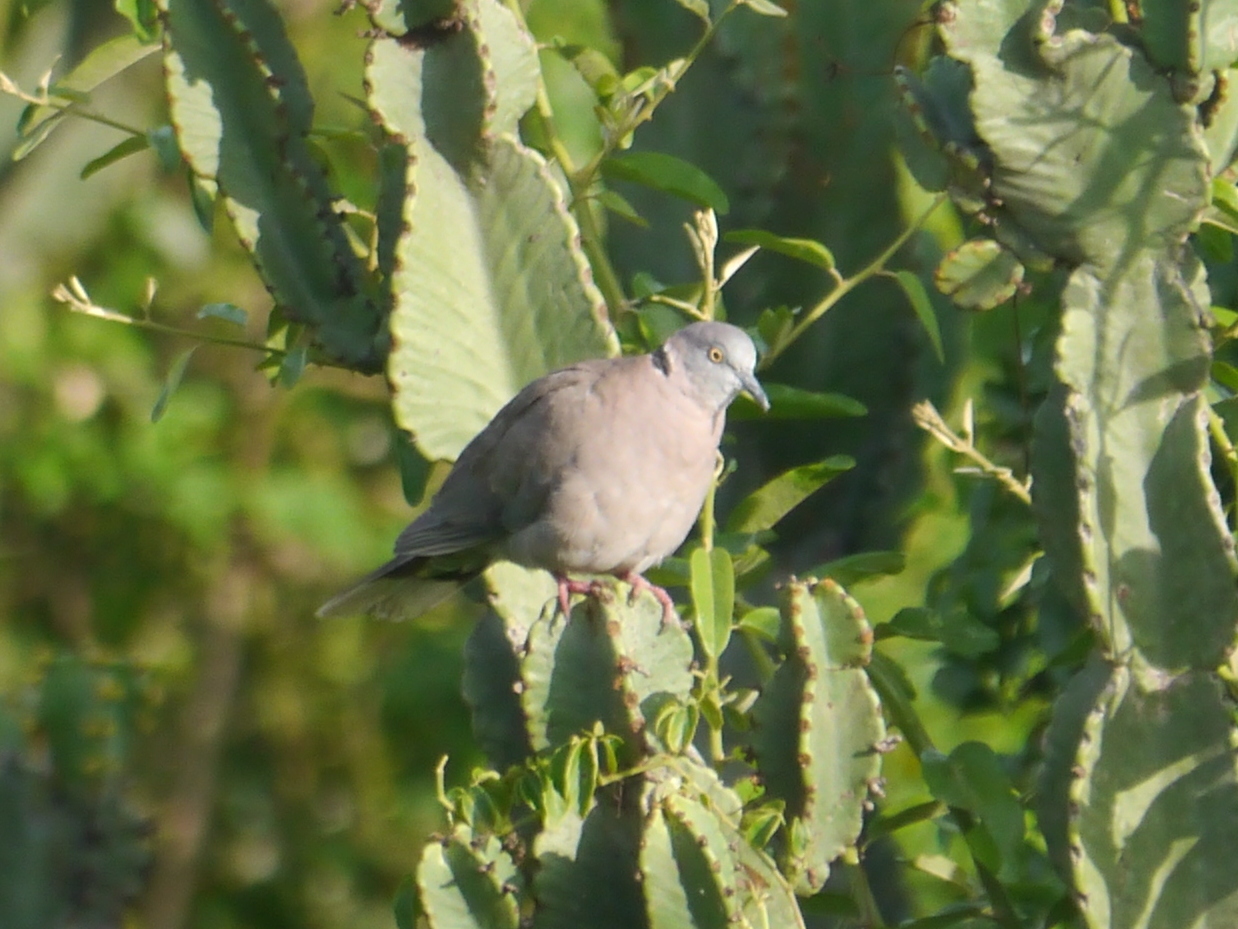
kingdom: Animalia
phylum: Chordata
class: Aves
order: Columbiformes
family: Columbidae
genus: Streptopelia
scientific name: Streptopelia decipiens
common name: Mourning collared dove
